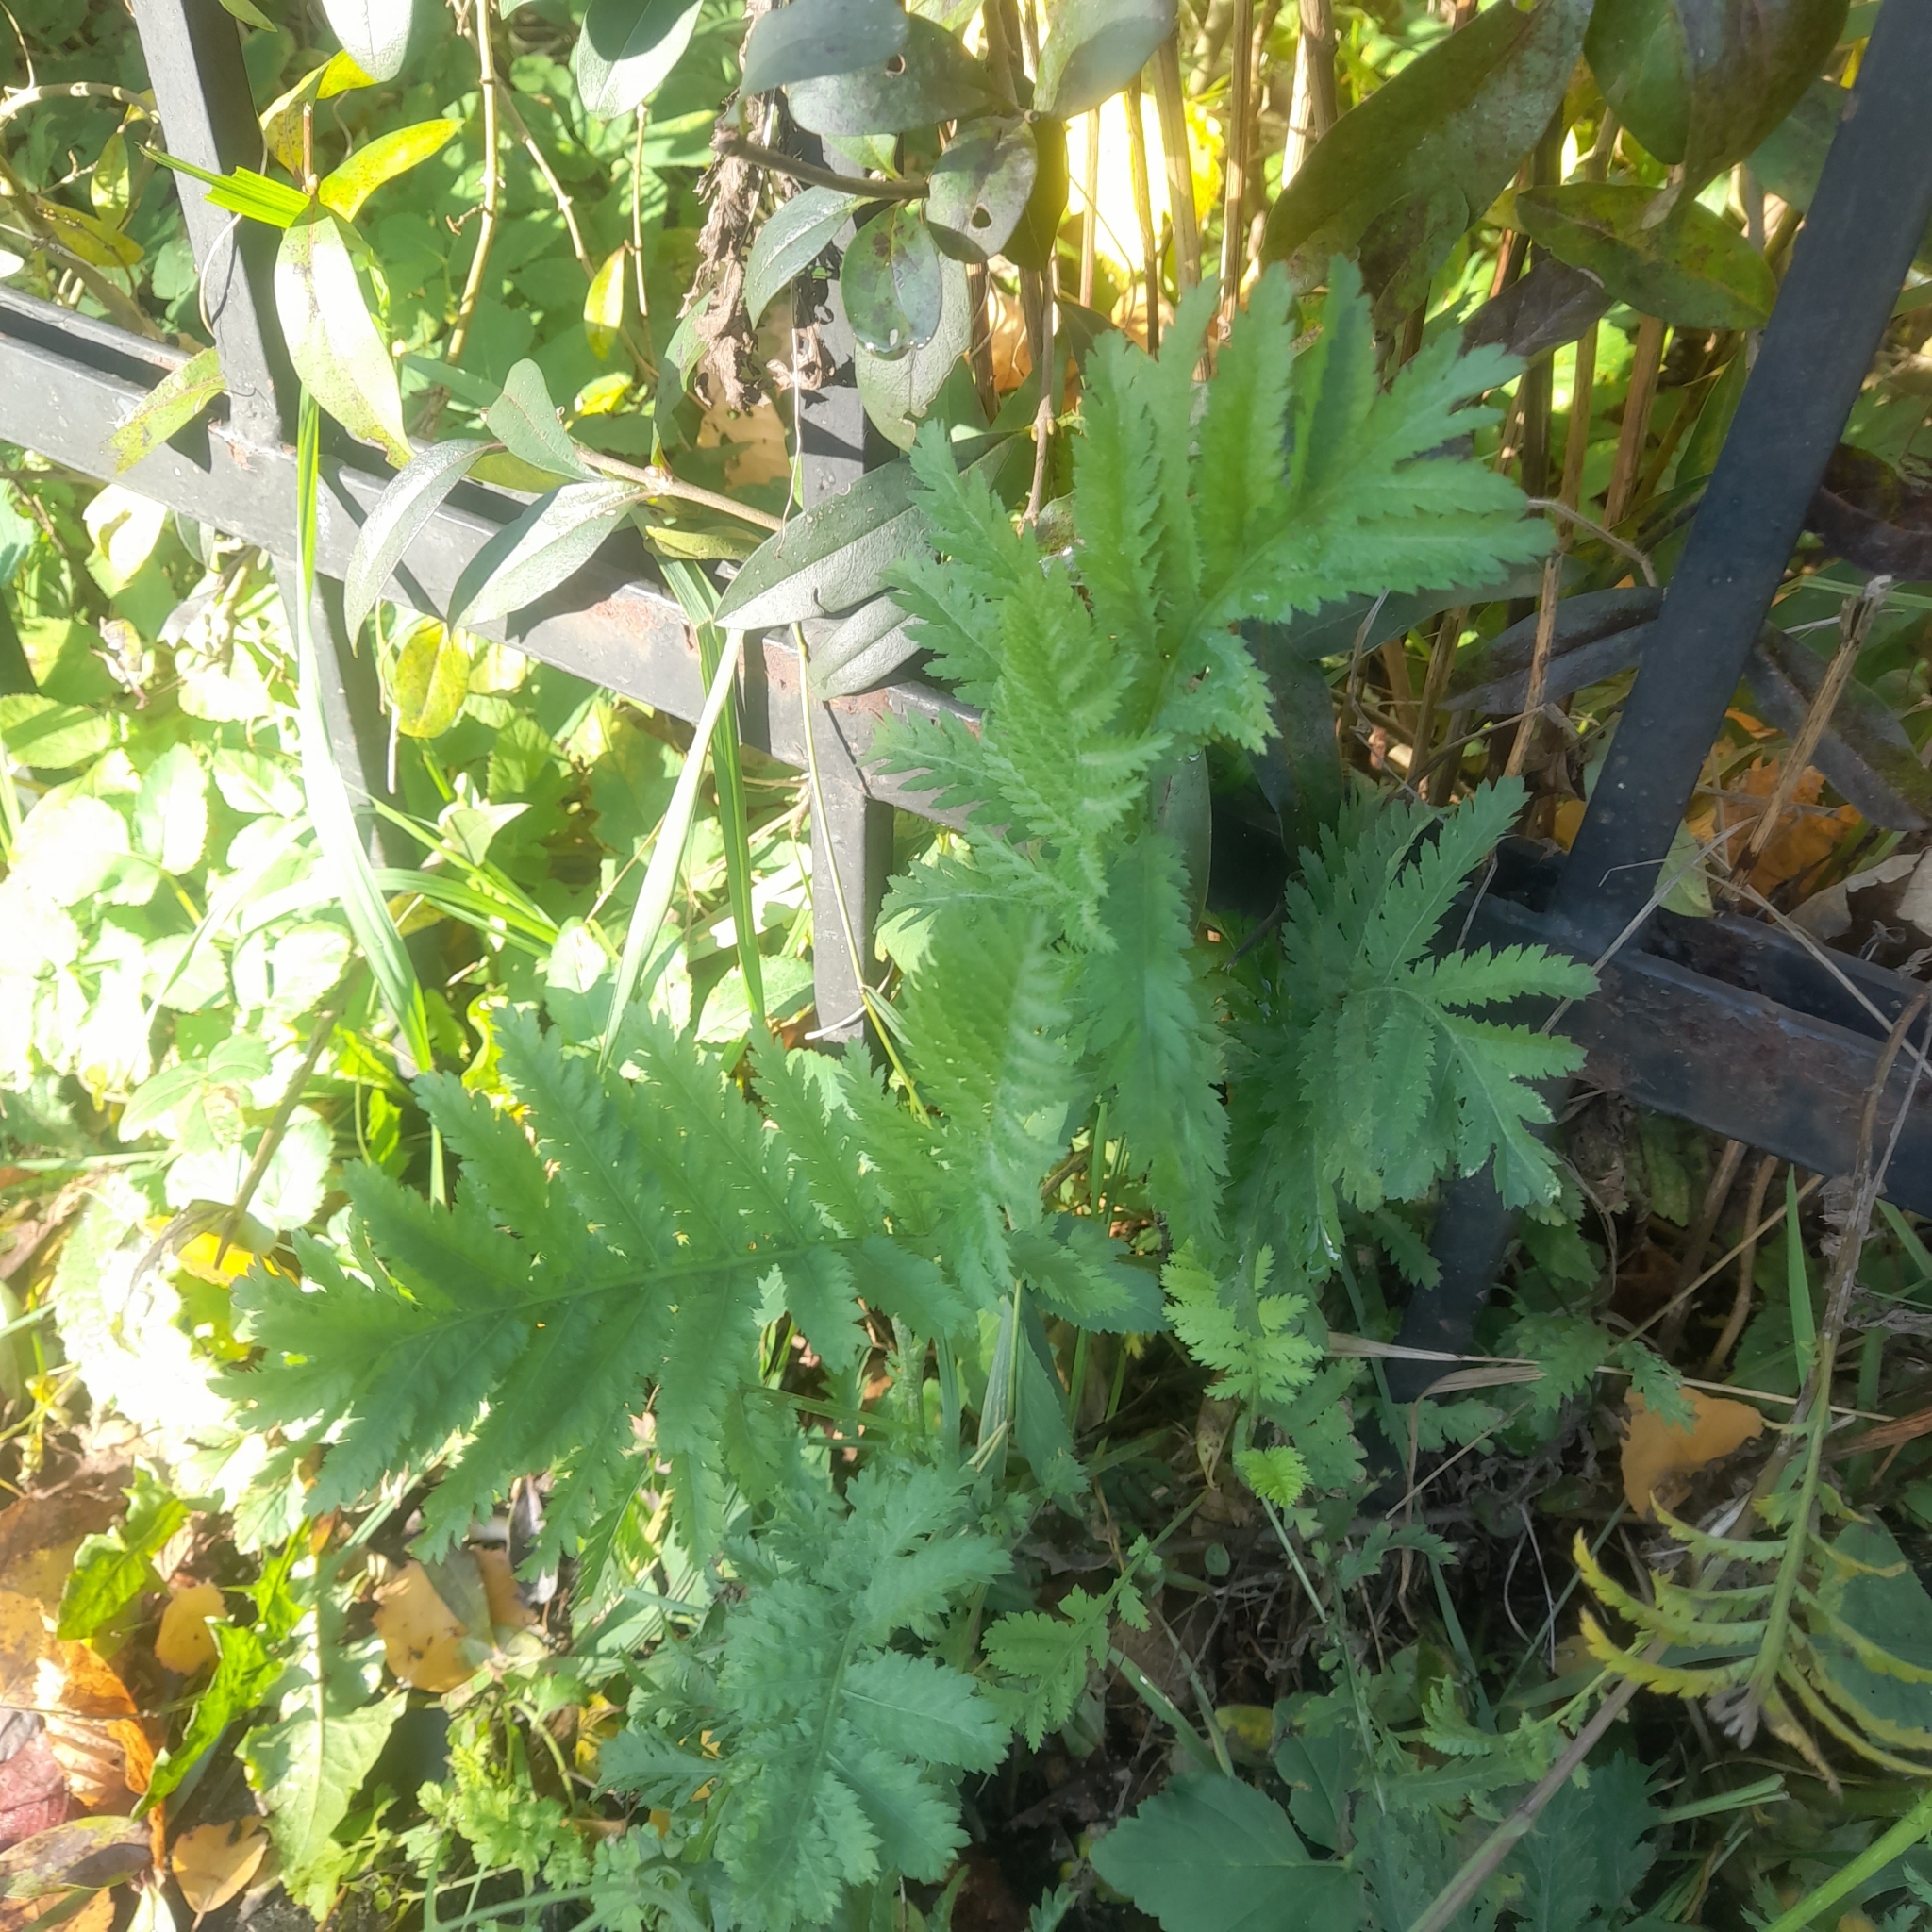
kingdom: Plantae
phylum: Tracheophyta
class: Magnoliopsida
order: Asterales
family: Asteraceae
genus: Tanacetum
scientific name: Tanacetum vulgare
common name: Common tansy
